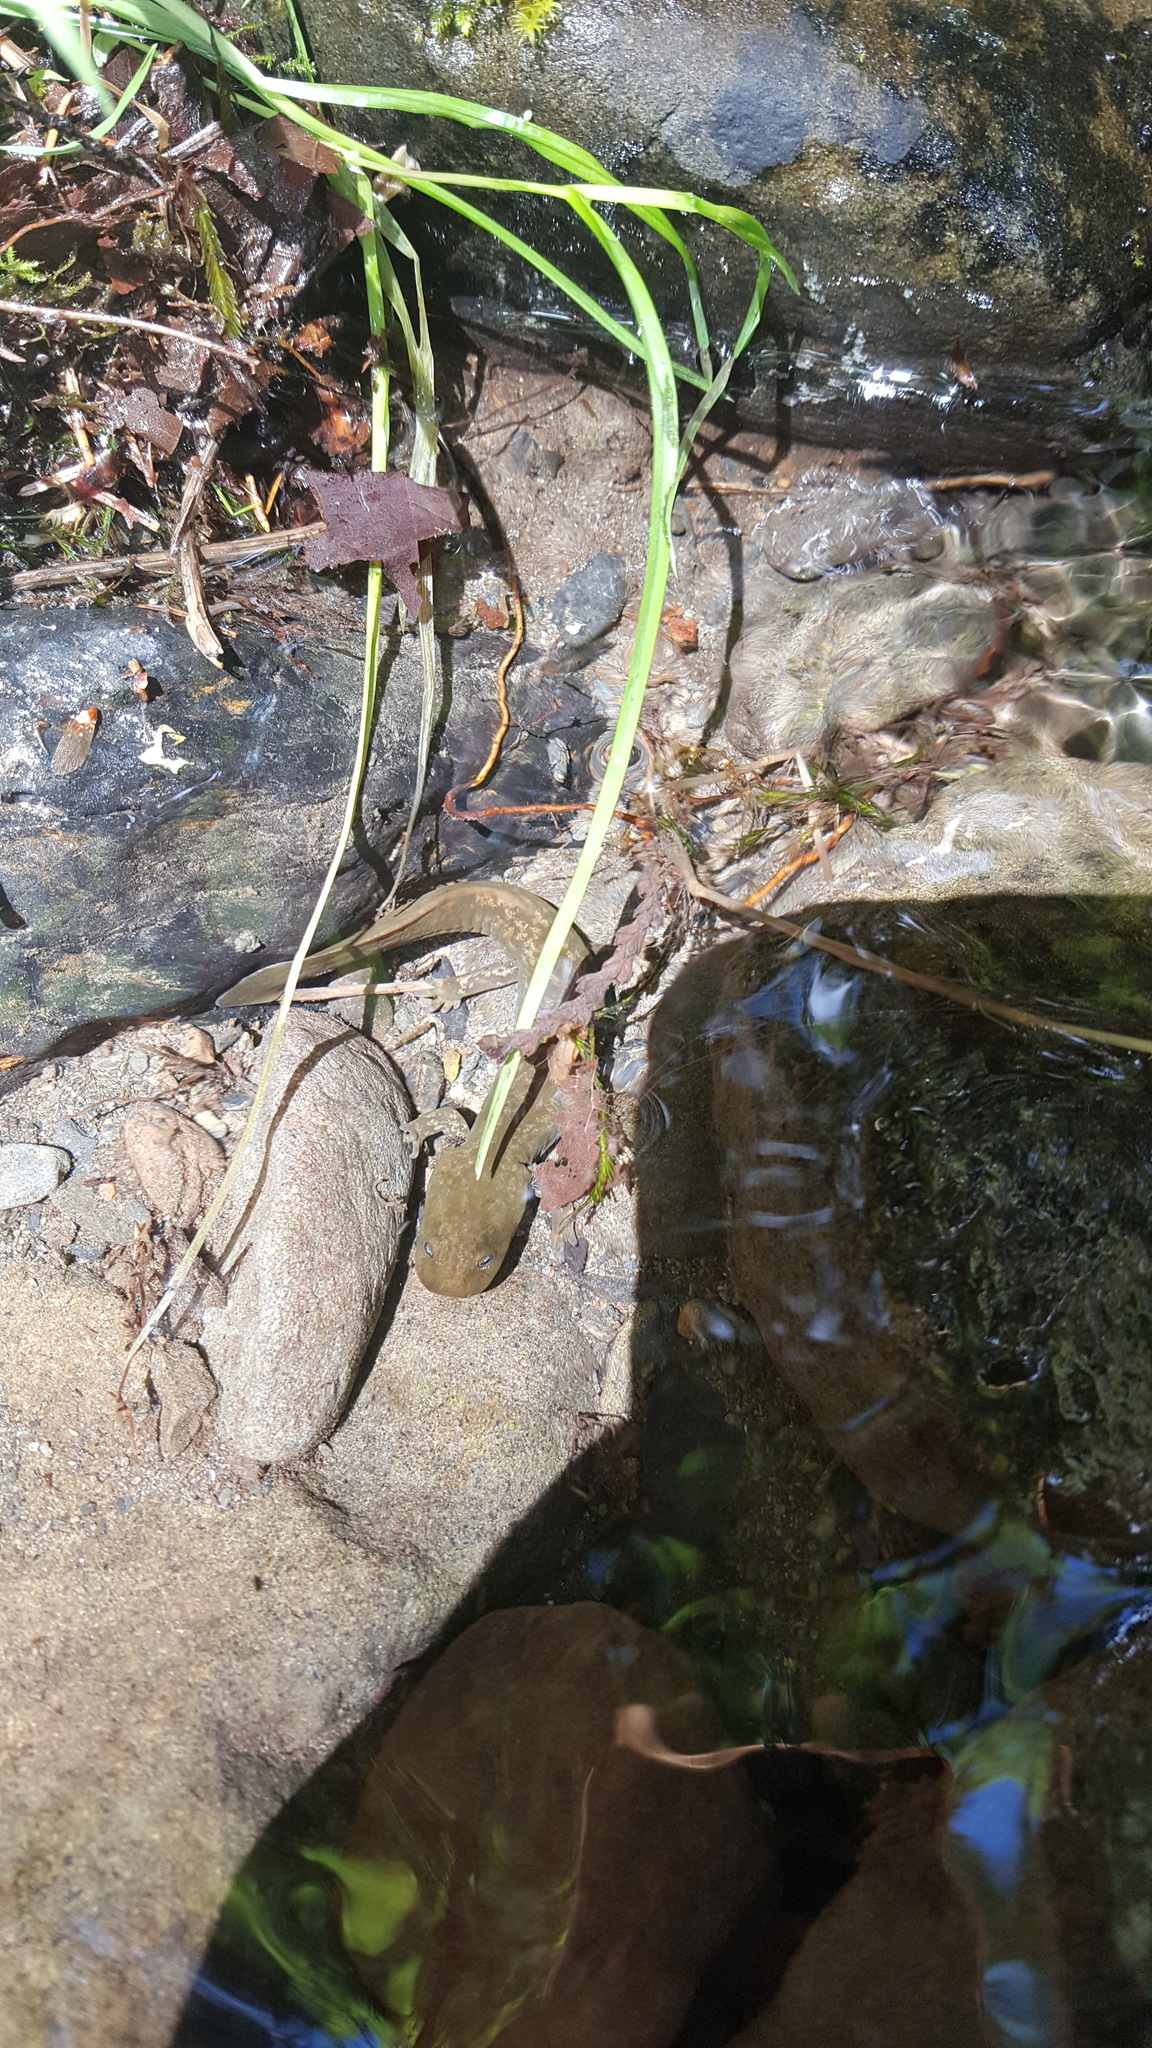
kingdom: Animalia
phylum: Chordata
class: Amphibia
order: Caudata
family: Ambystomatidae
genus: Dicamptodon
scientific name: Dicamptodon copei
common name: Cope's giant salamander
